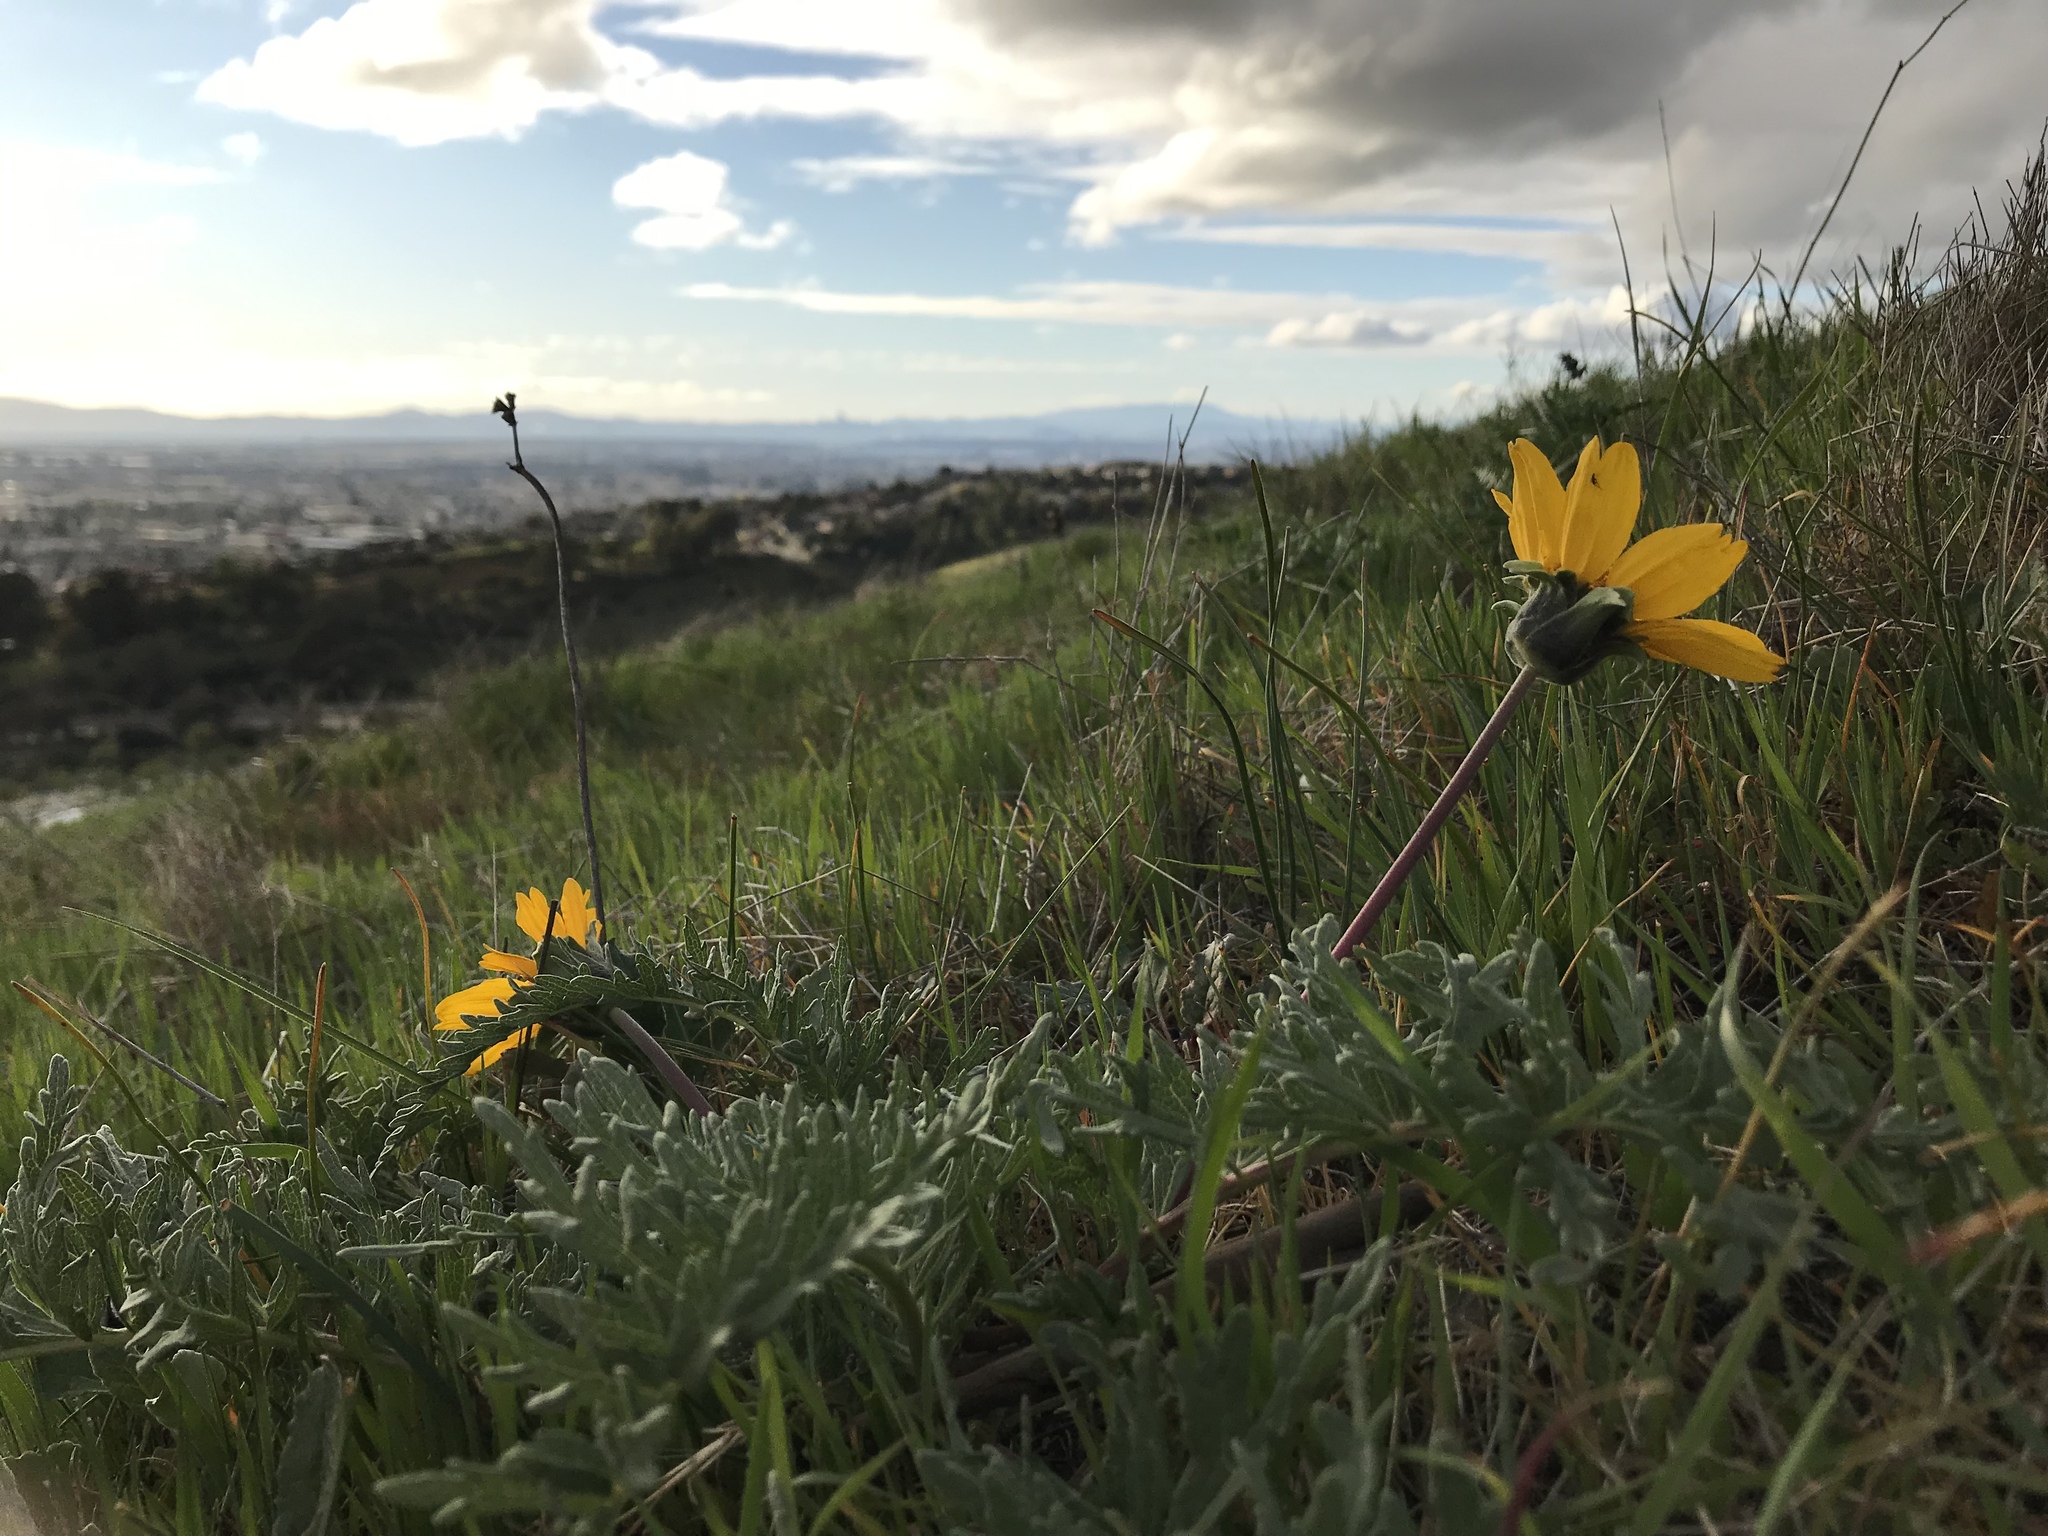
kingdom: Plantae
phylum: Tracheophyta
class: Magnoliopsida
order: Asterales
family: Asteraceae
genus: Balsamorhiza
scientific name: Balsamorhiza macrolepis
